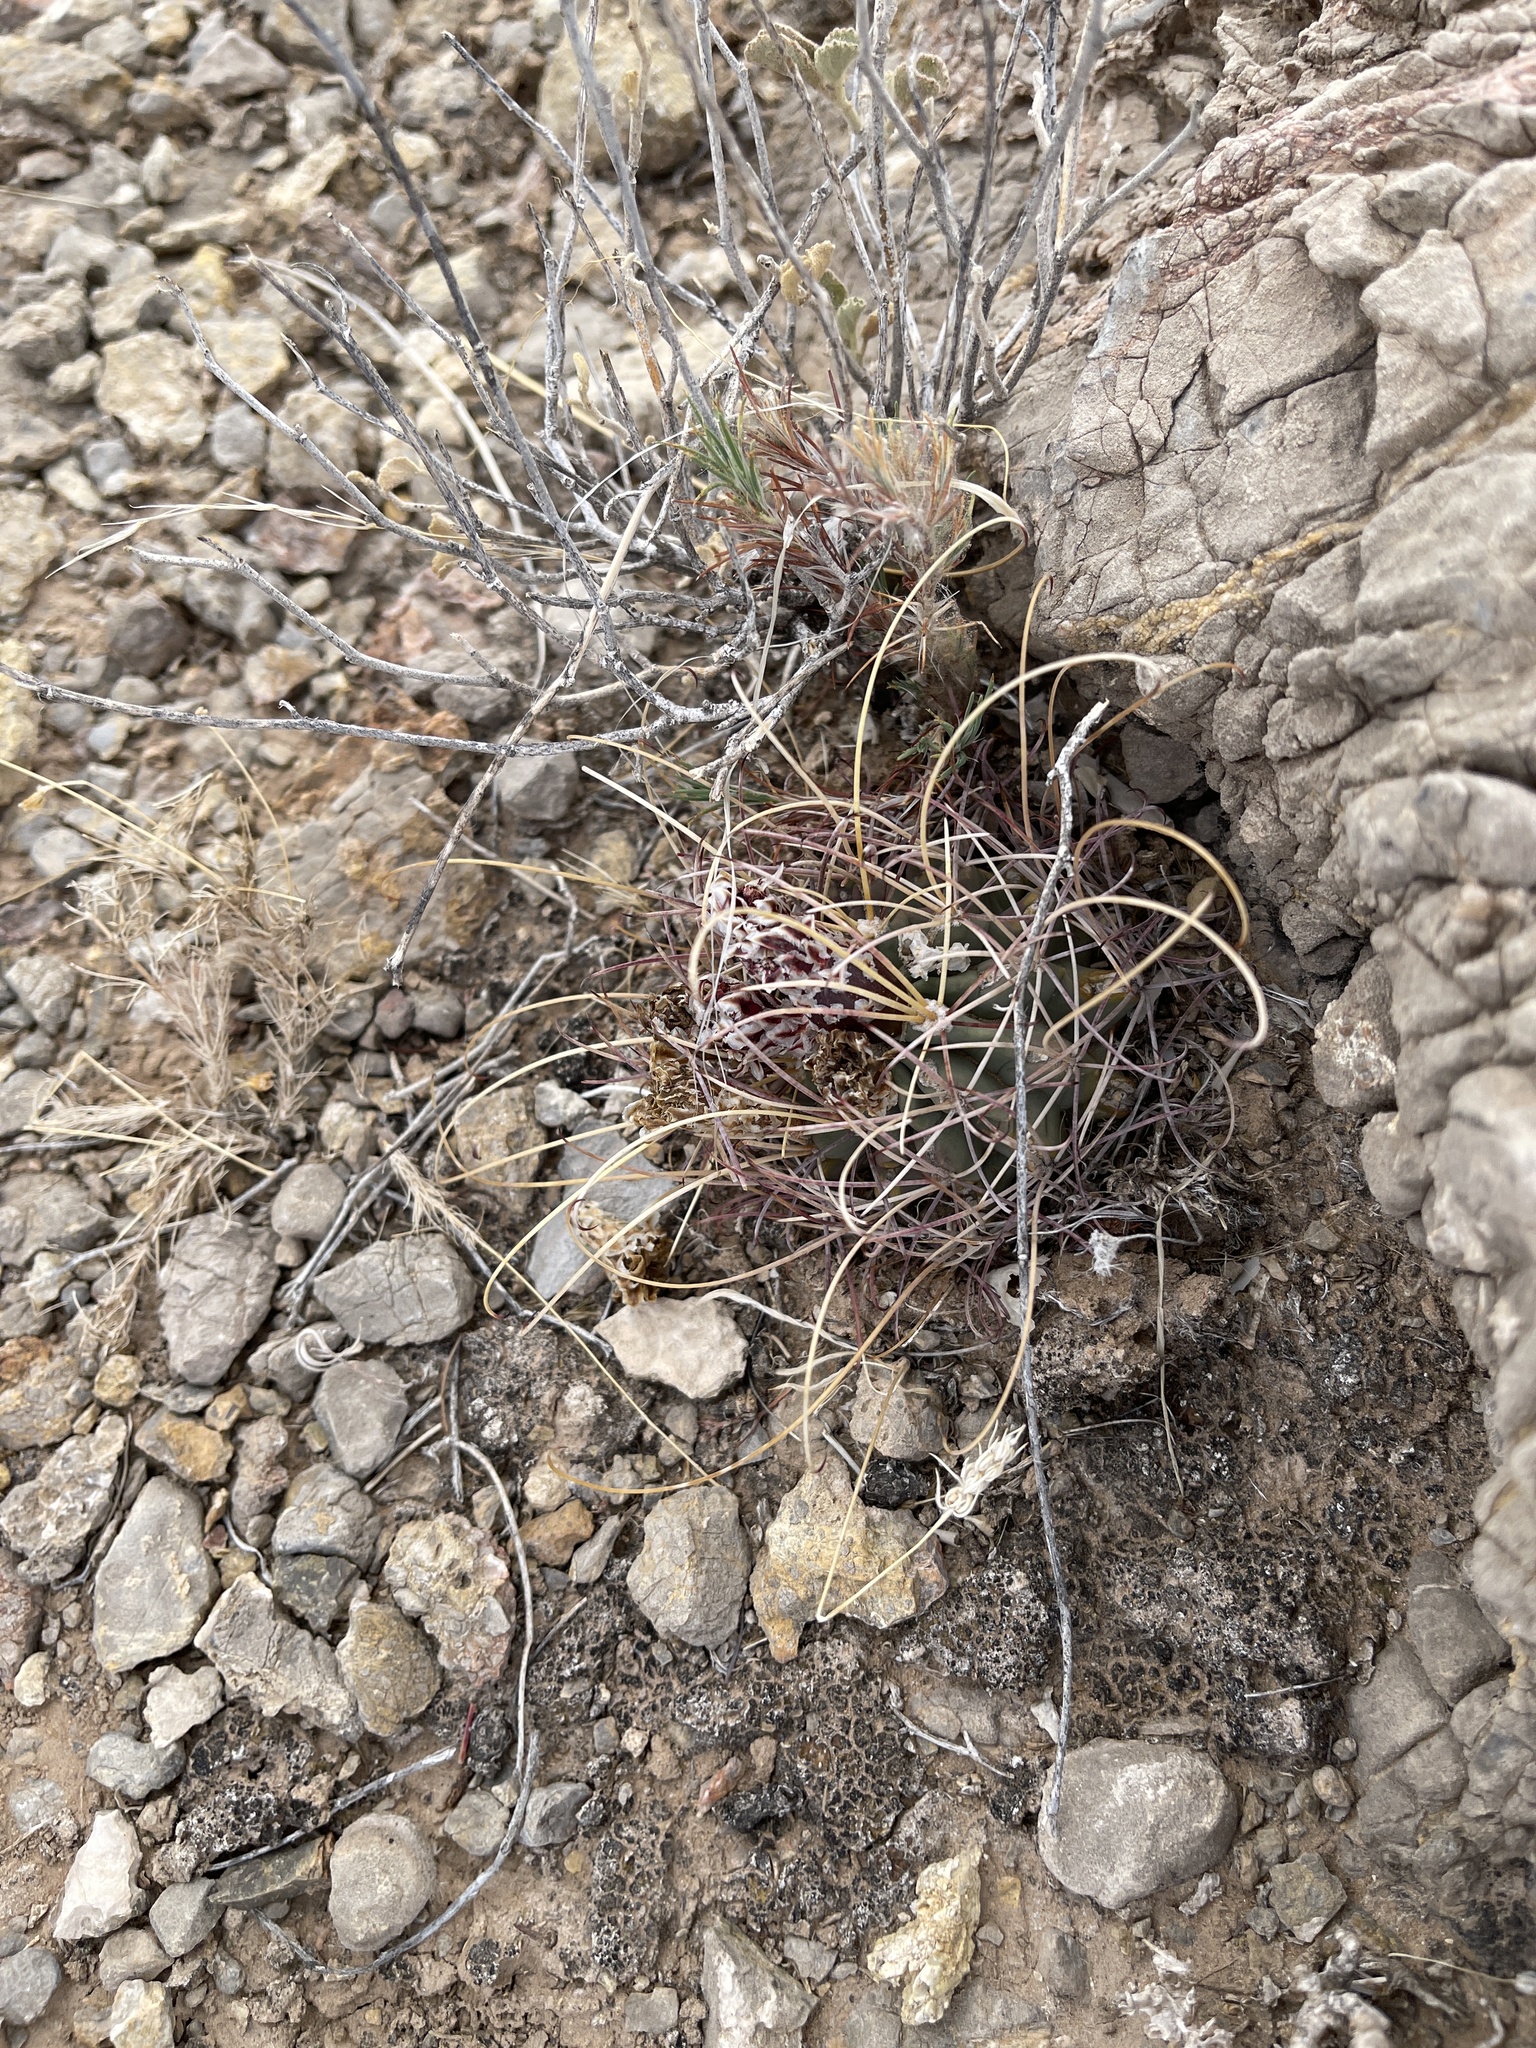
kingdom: Plantae
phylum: Tracheophyta
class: Magnoliopsida
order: Caryophyllales
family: Cactaceae
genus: Ferocactus
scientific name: Ferocactus uncinatus
